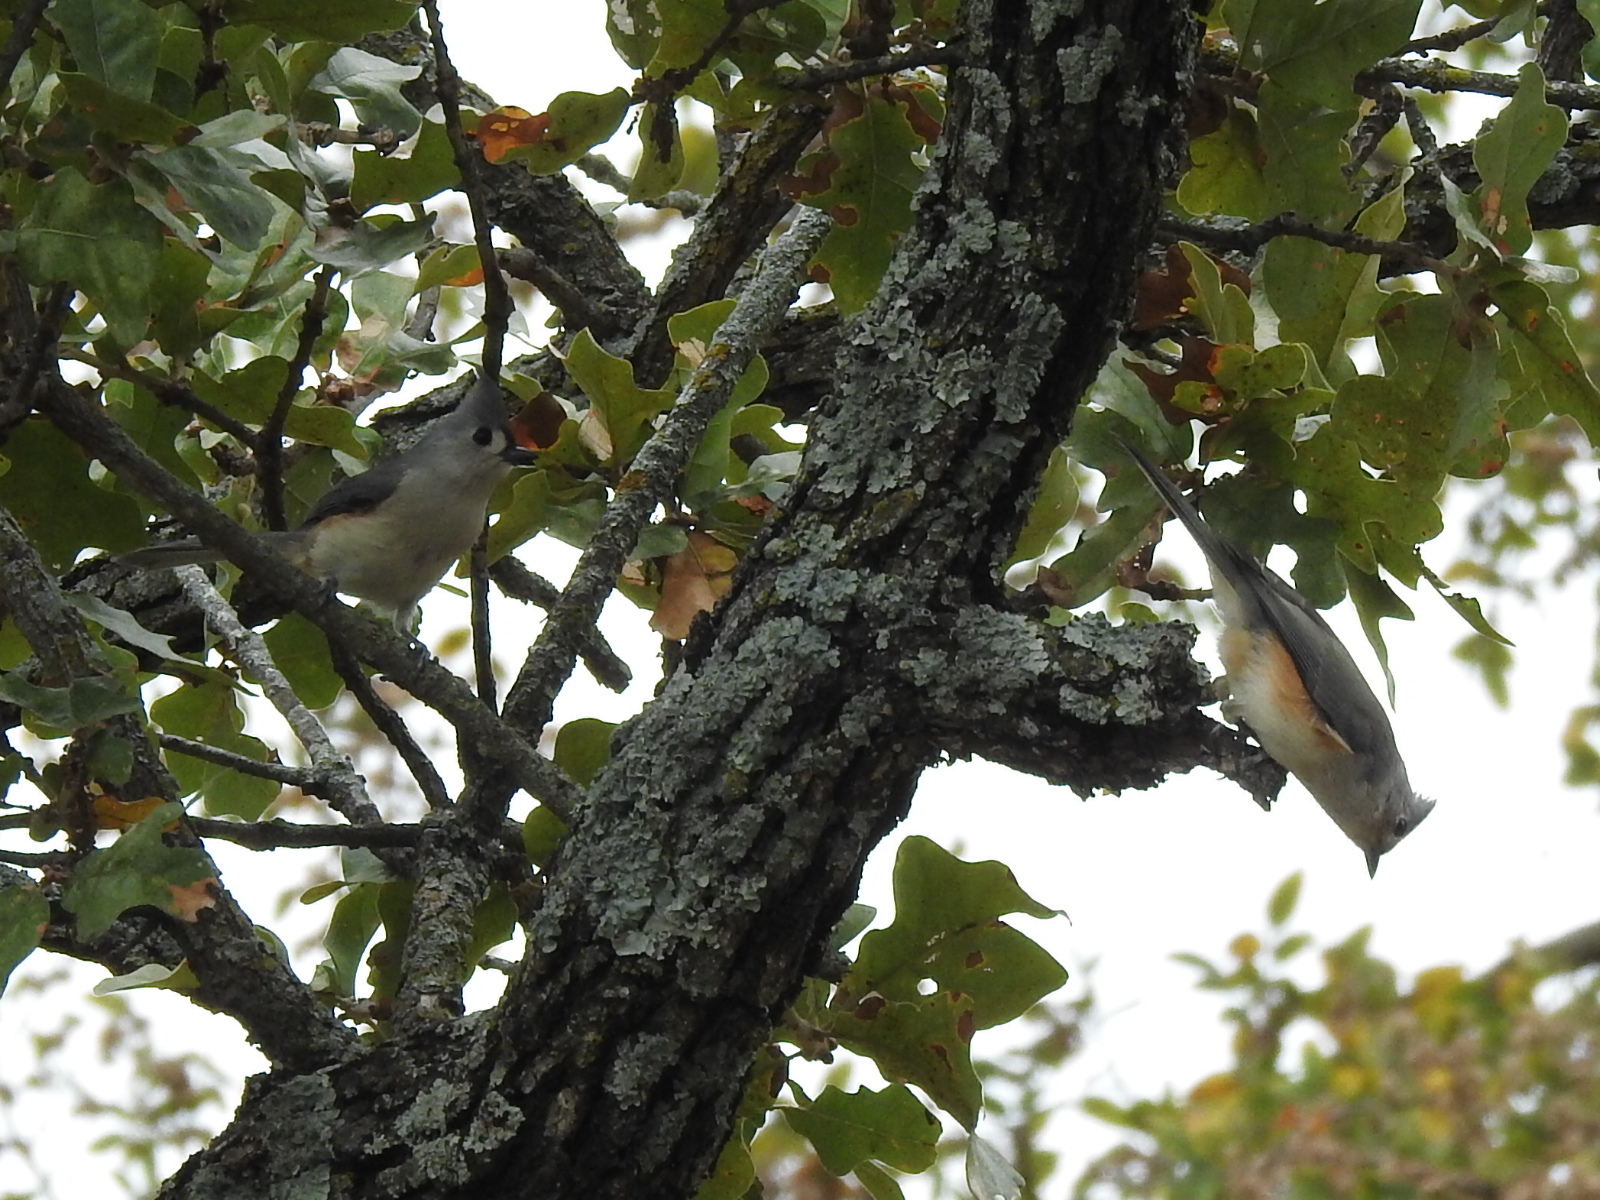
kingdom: Animalia
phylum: Chordata
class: Aves
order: Passeriformes
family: Paridae
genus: Baeolophus
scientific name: Baeolophus bicolor
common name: Tufted titmouse
